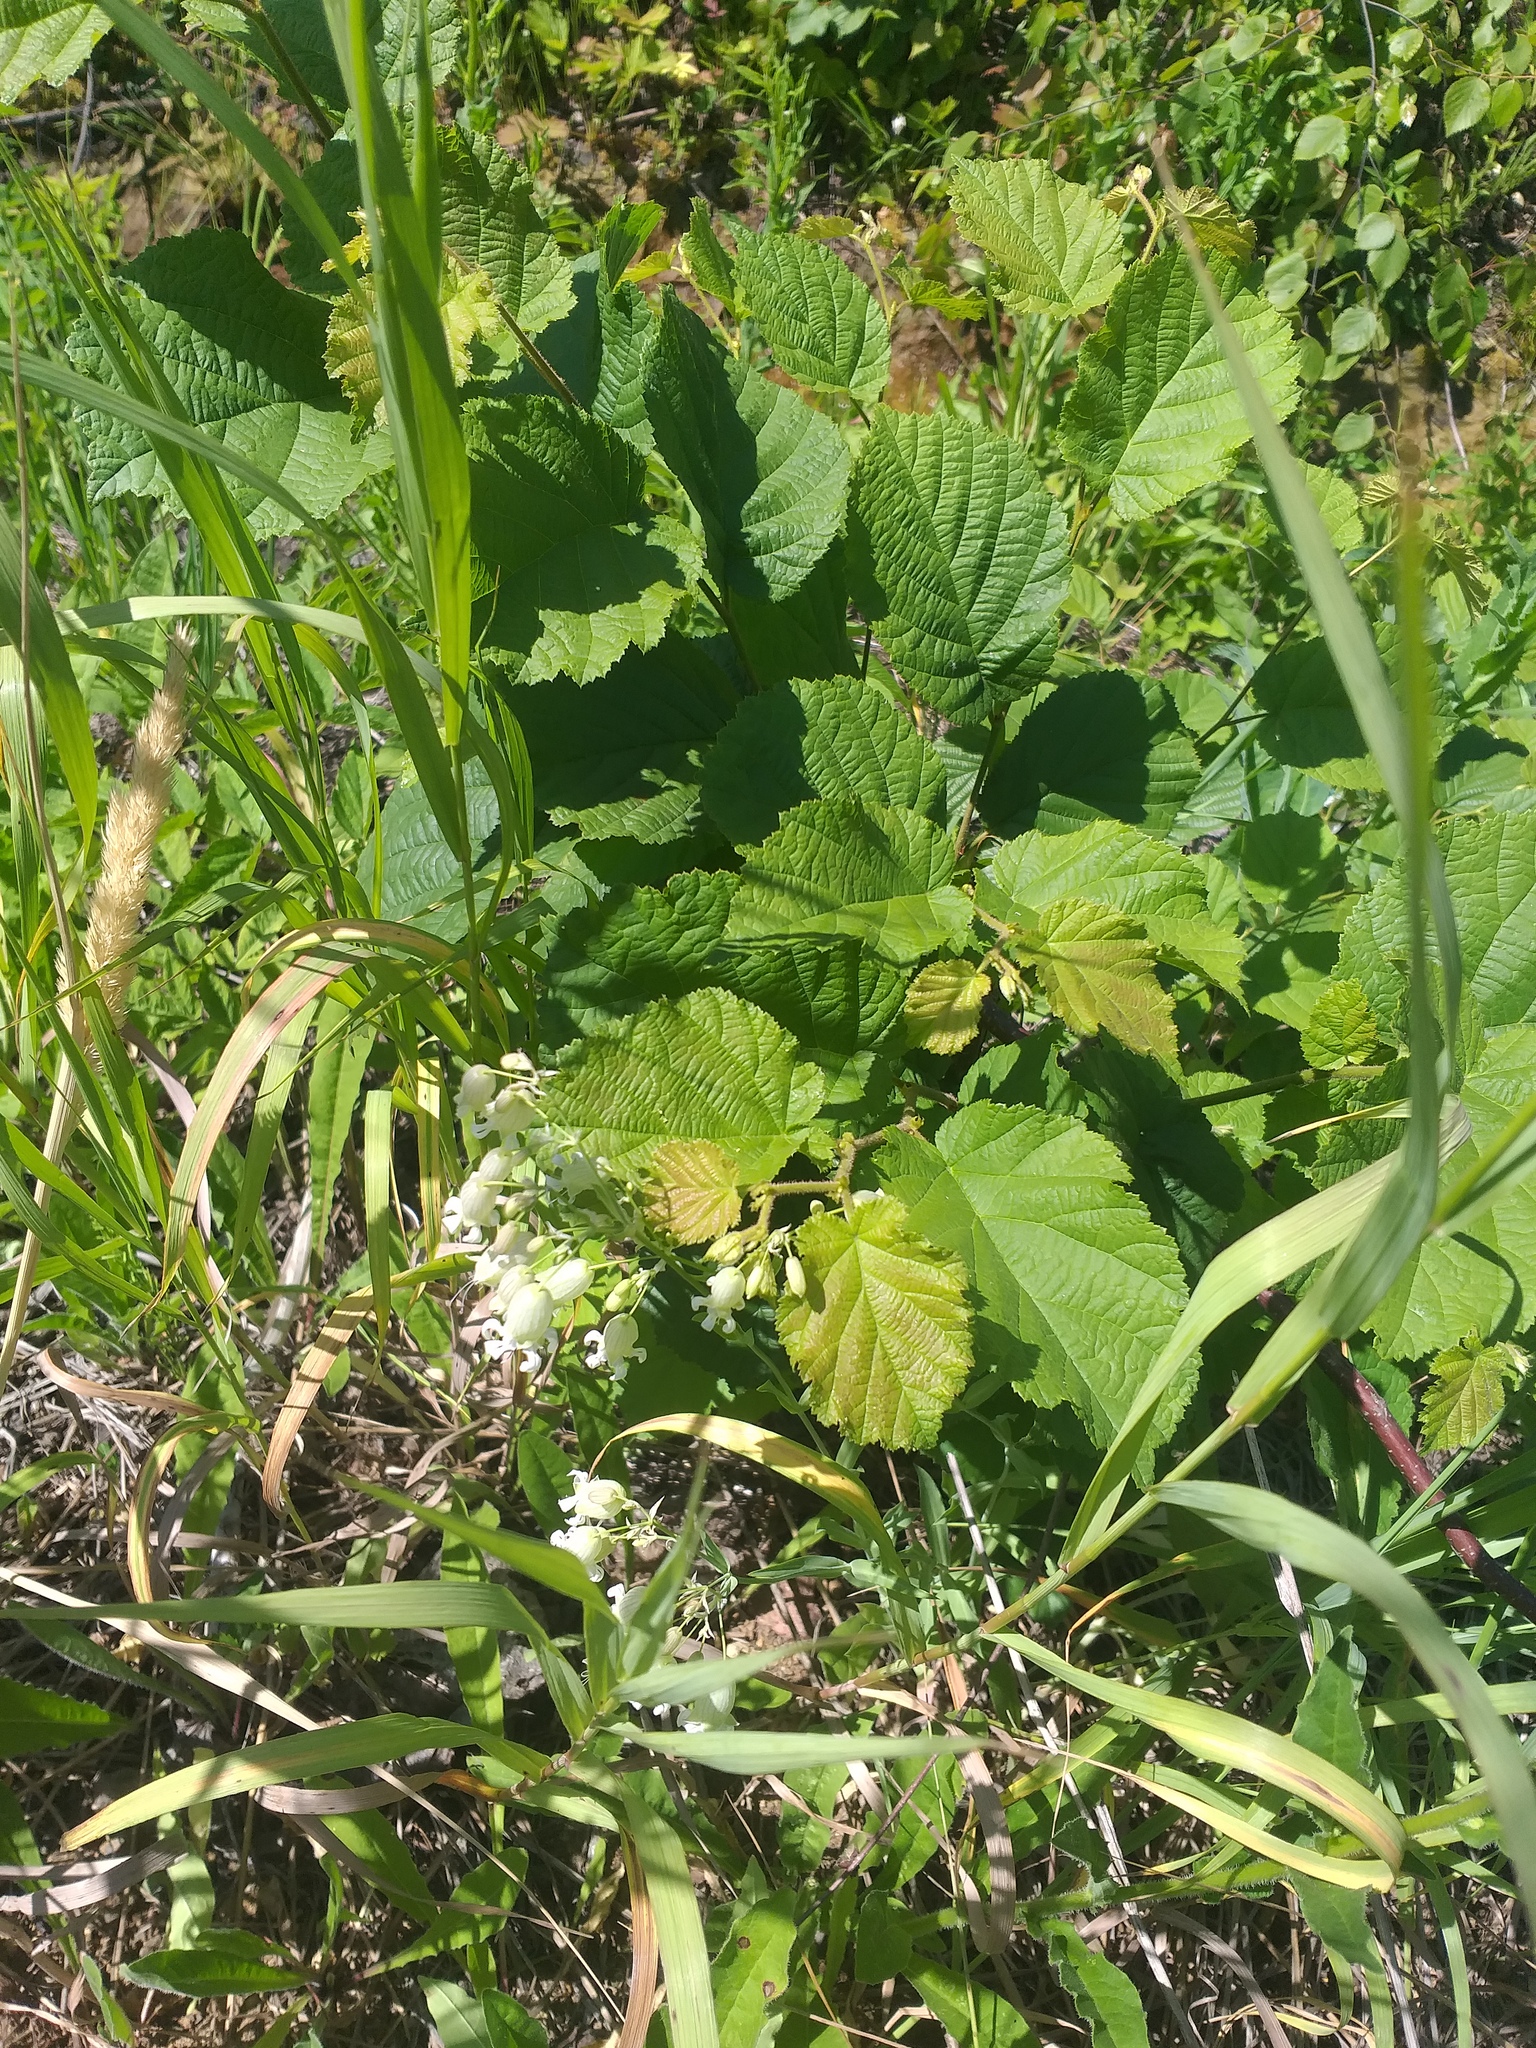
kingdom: Plantae
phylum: Tracheophyta
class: Magnoliopsida
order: Caryophyllales
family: Caryophyllaceae
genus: Silene
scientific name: Silene vulgaris
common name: Bladder campion
